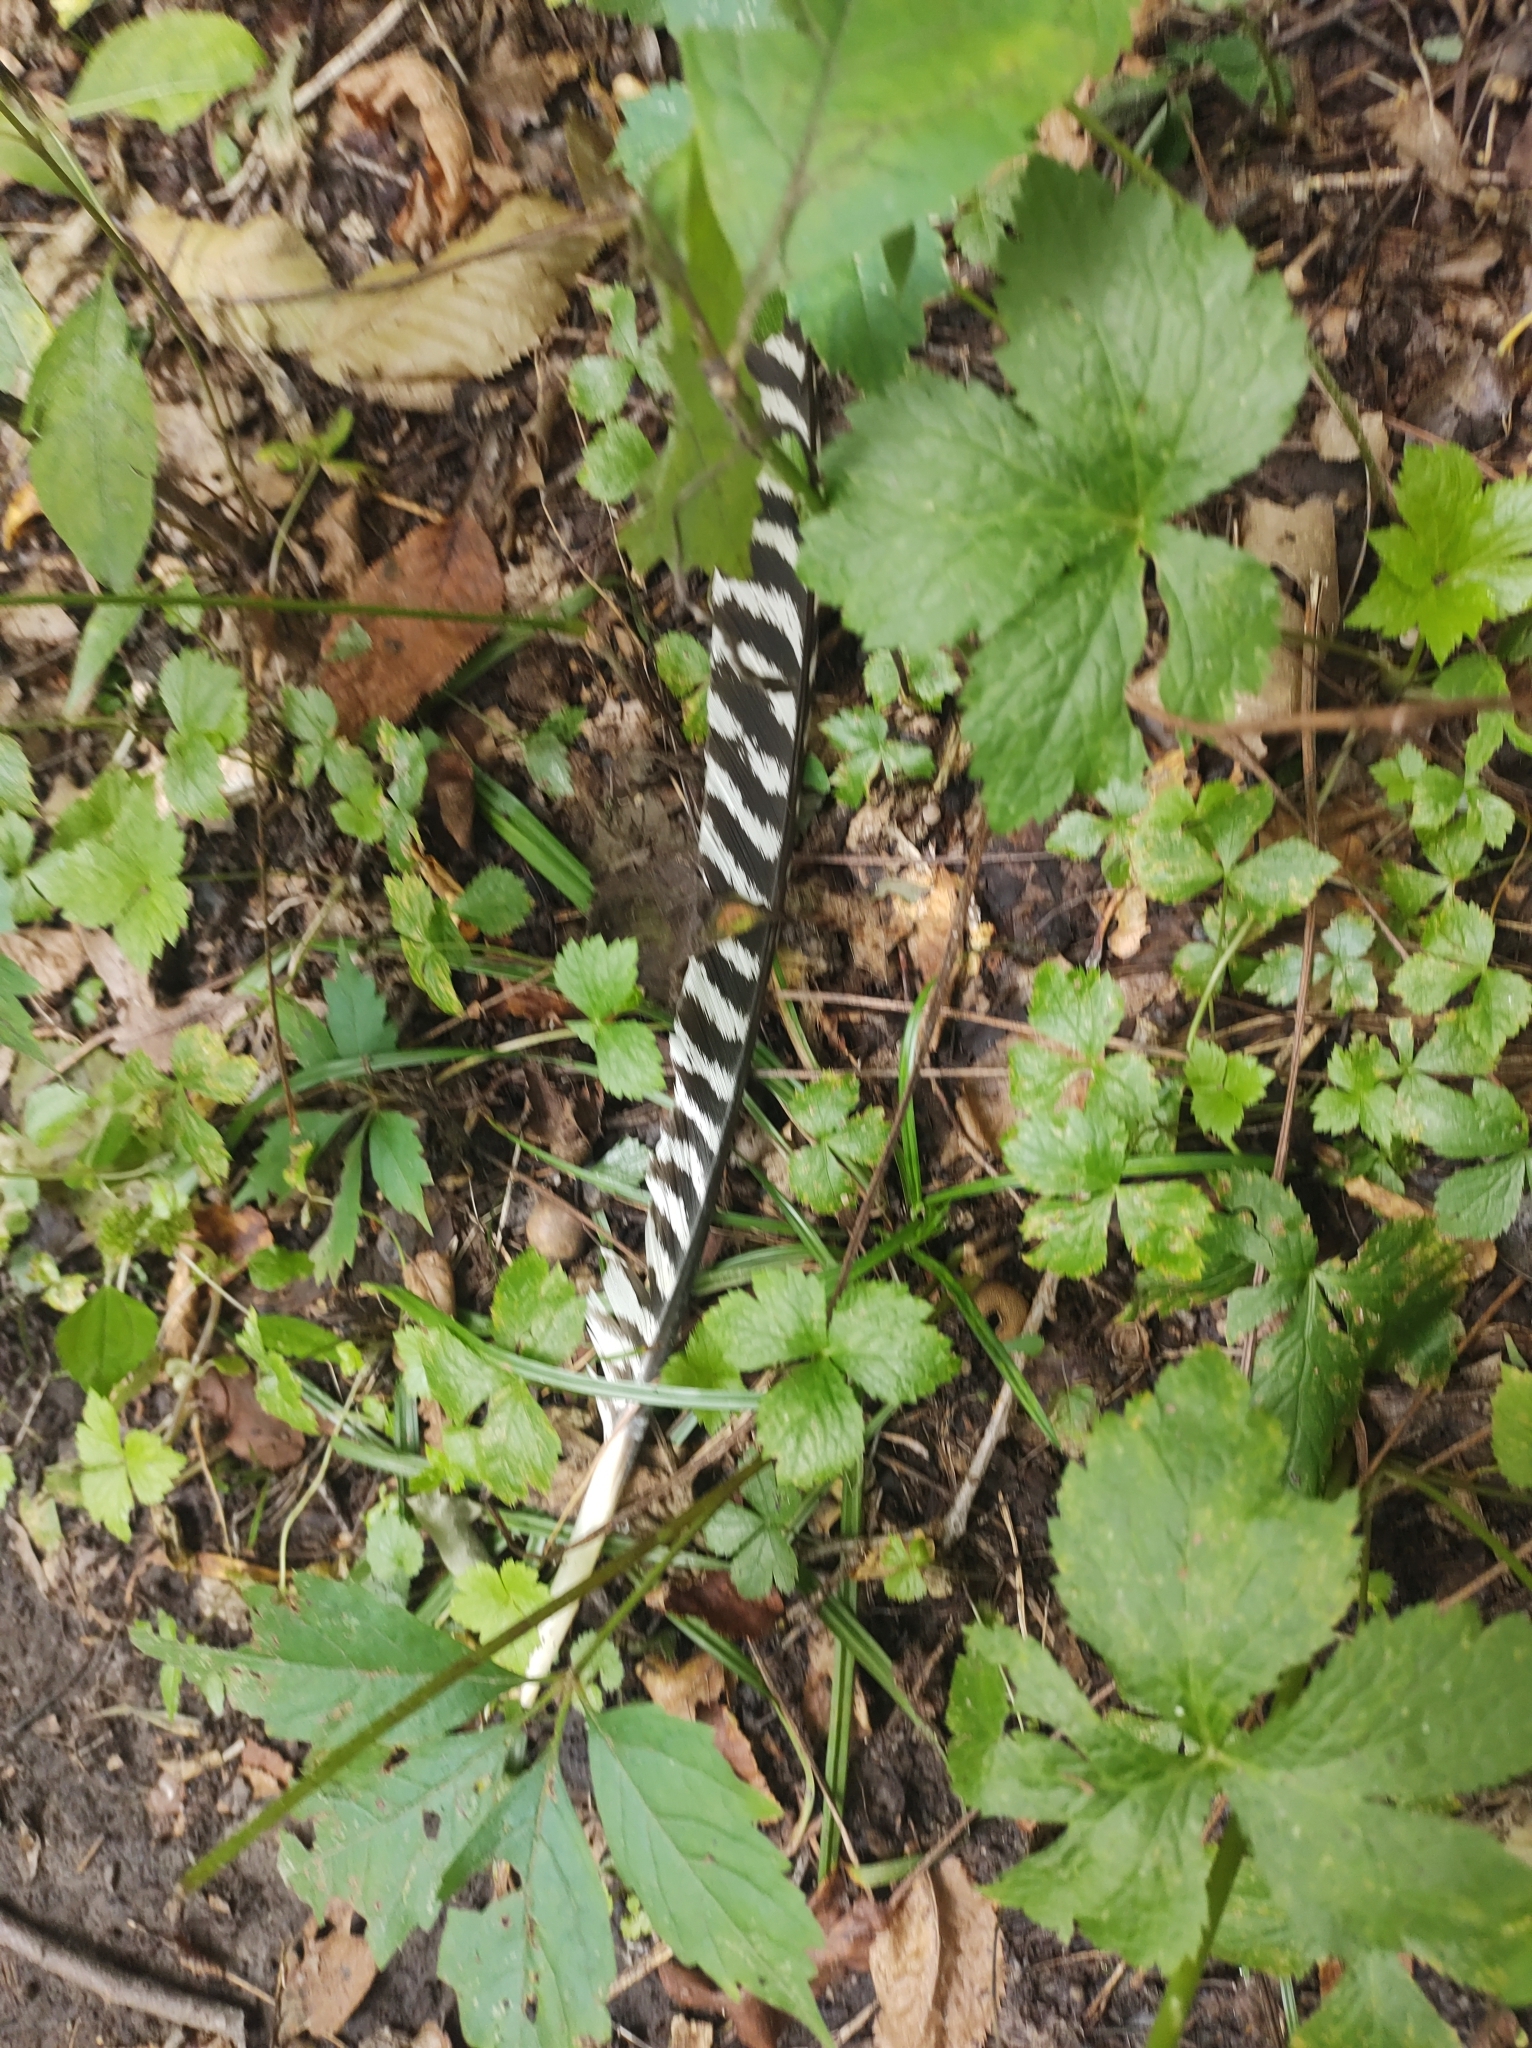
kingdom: Animalia
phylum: Chordata
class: Aves
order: Galliformes
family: Phasianidae
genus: Meleagris
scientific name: Meleagris gallopavo
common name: Wild turkey
